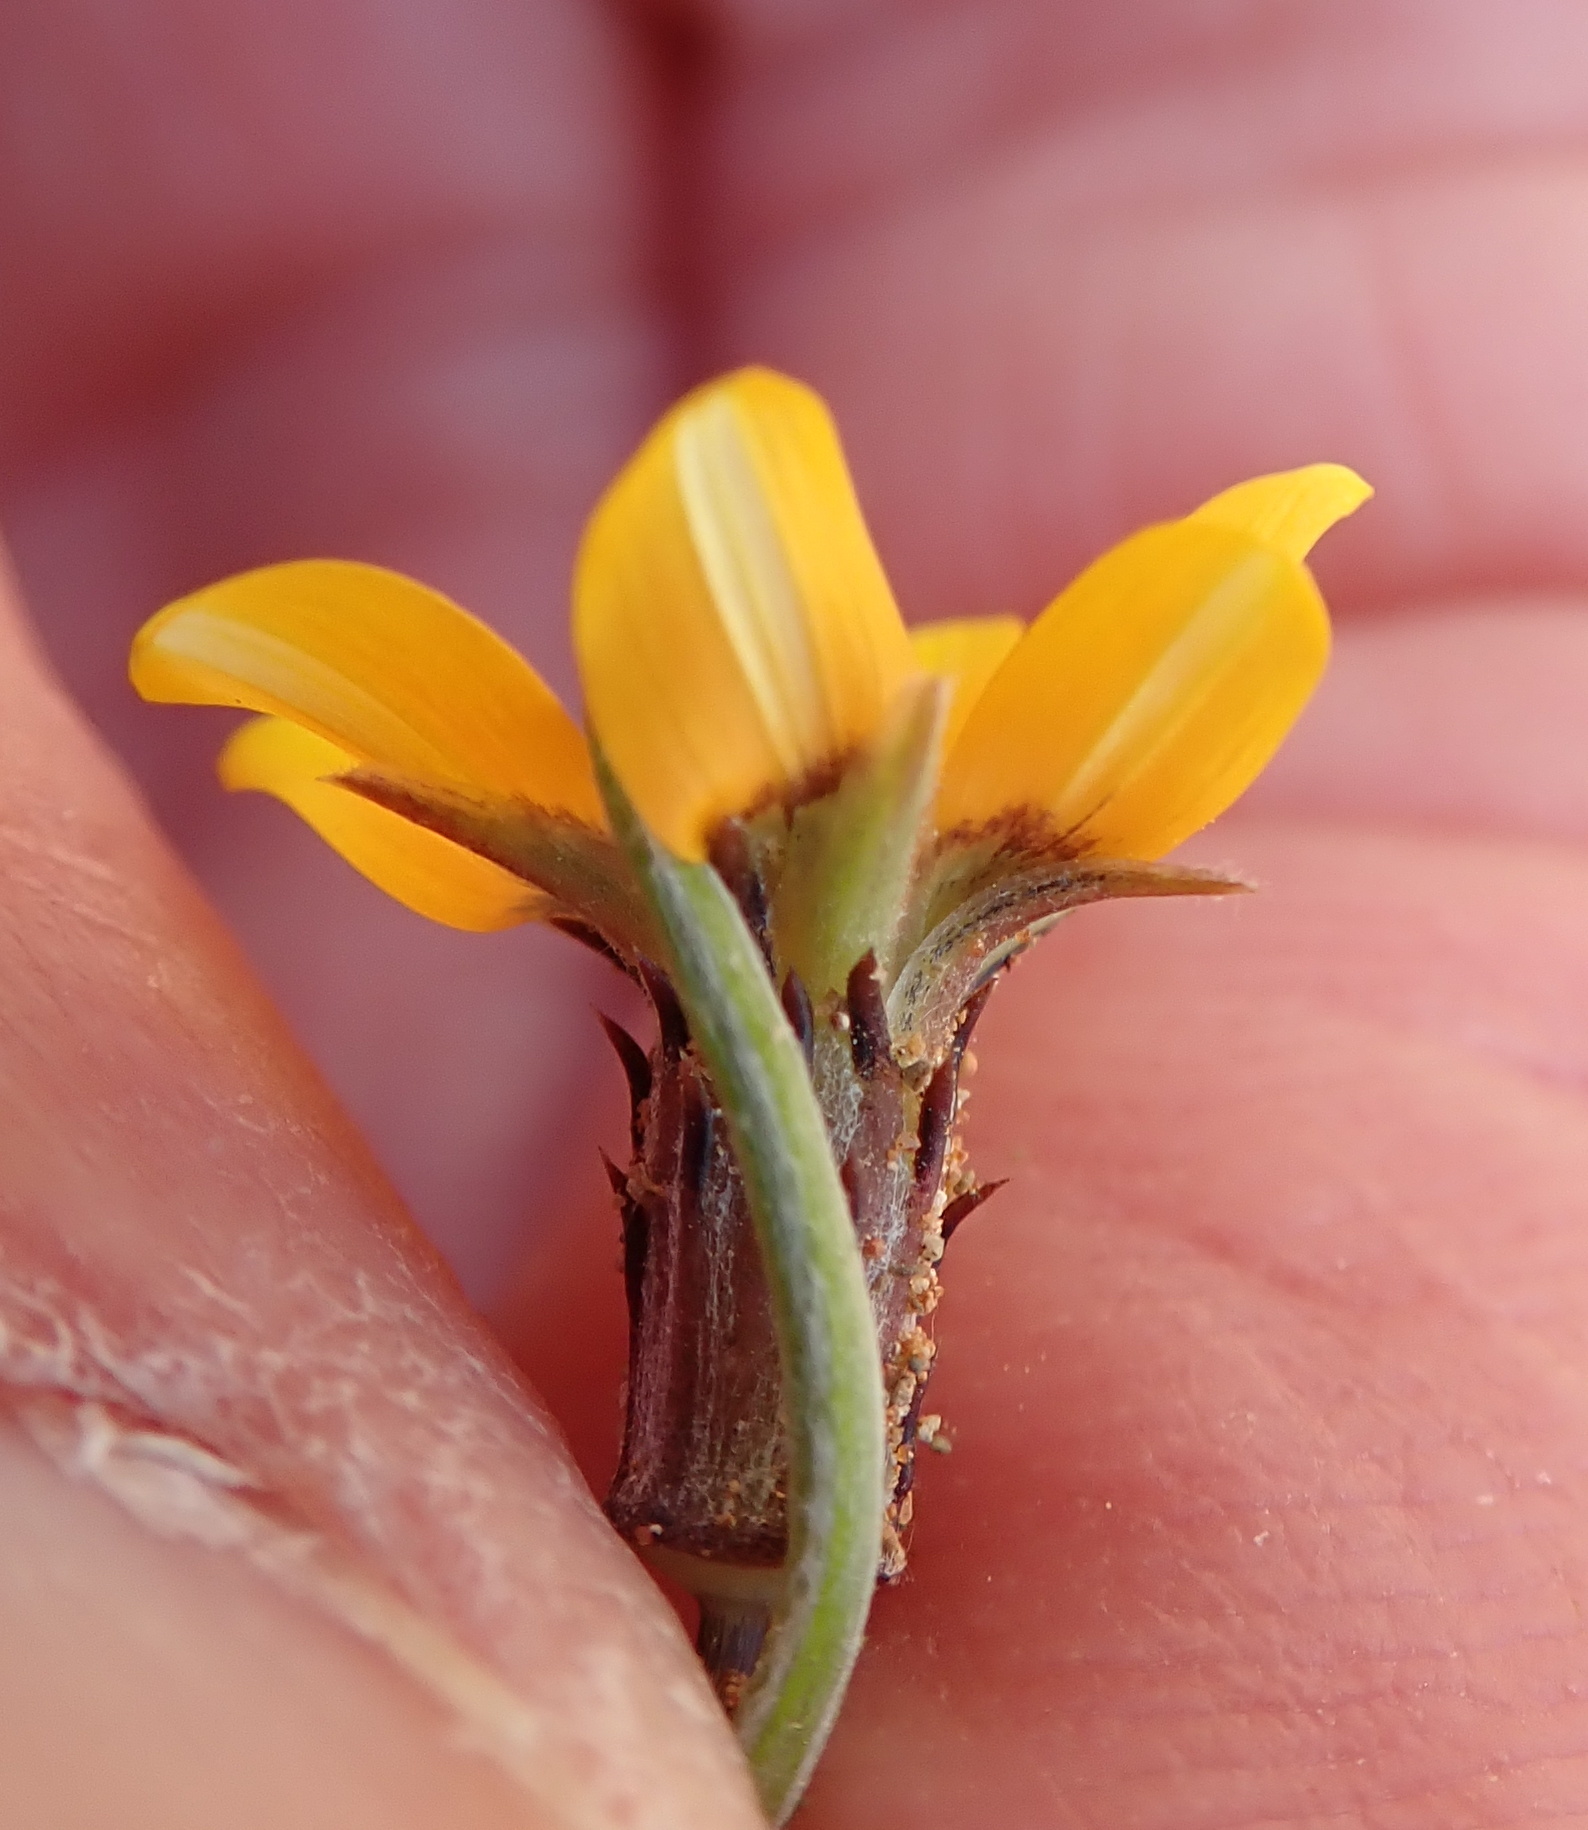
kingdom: Plantae
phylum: Tracheophyta
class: Magnoliopsida
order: Asterales
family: Asteraceae
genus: Gazania
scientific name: Gazania tenuifolia
